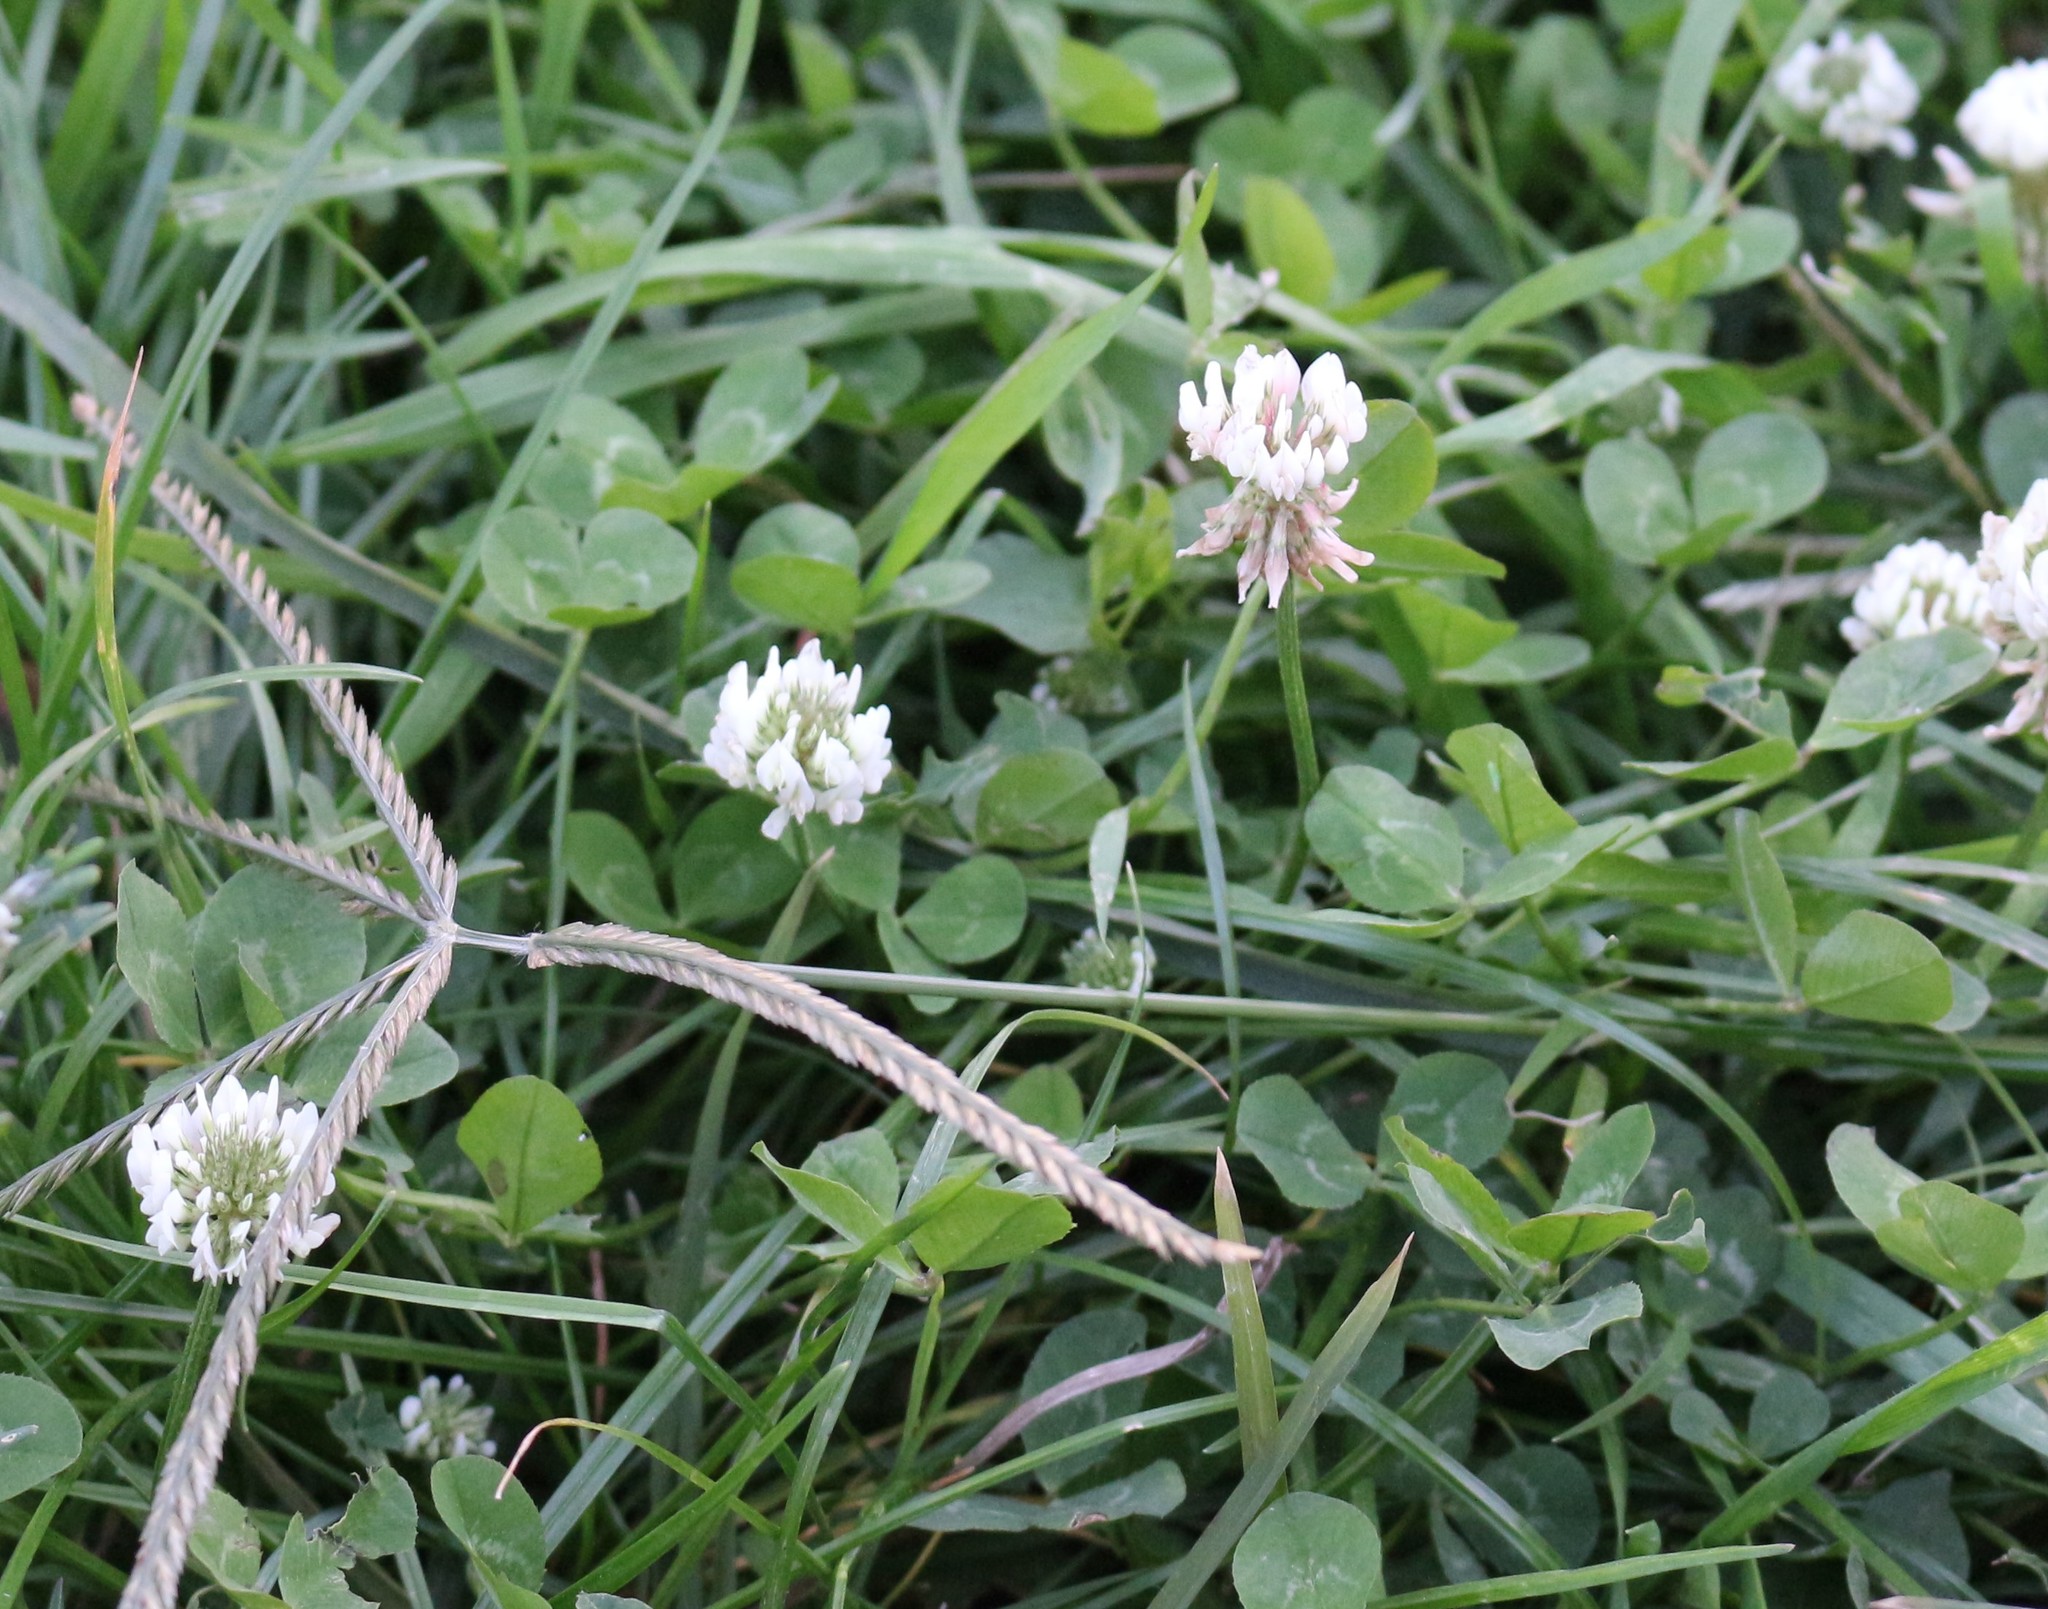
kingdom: Plantae
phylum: Tracheophyta
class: Magnoliopsida
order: Fabales
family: Fabaceae
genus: Trifolium
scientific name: Trifolium repens
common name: White clover
